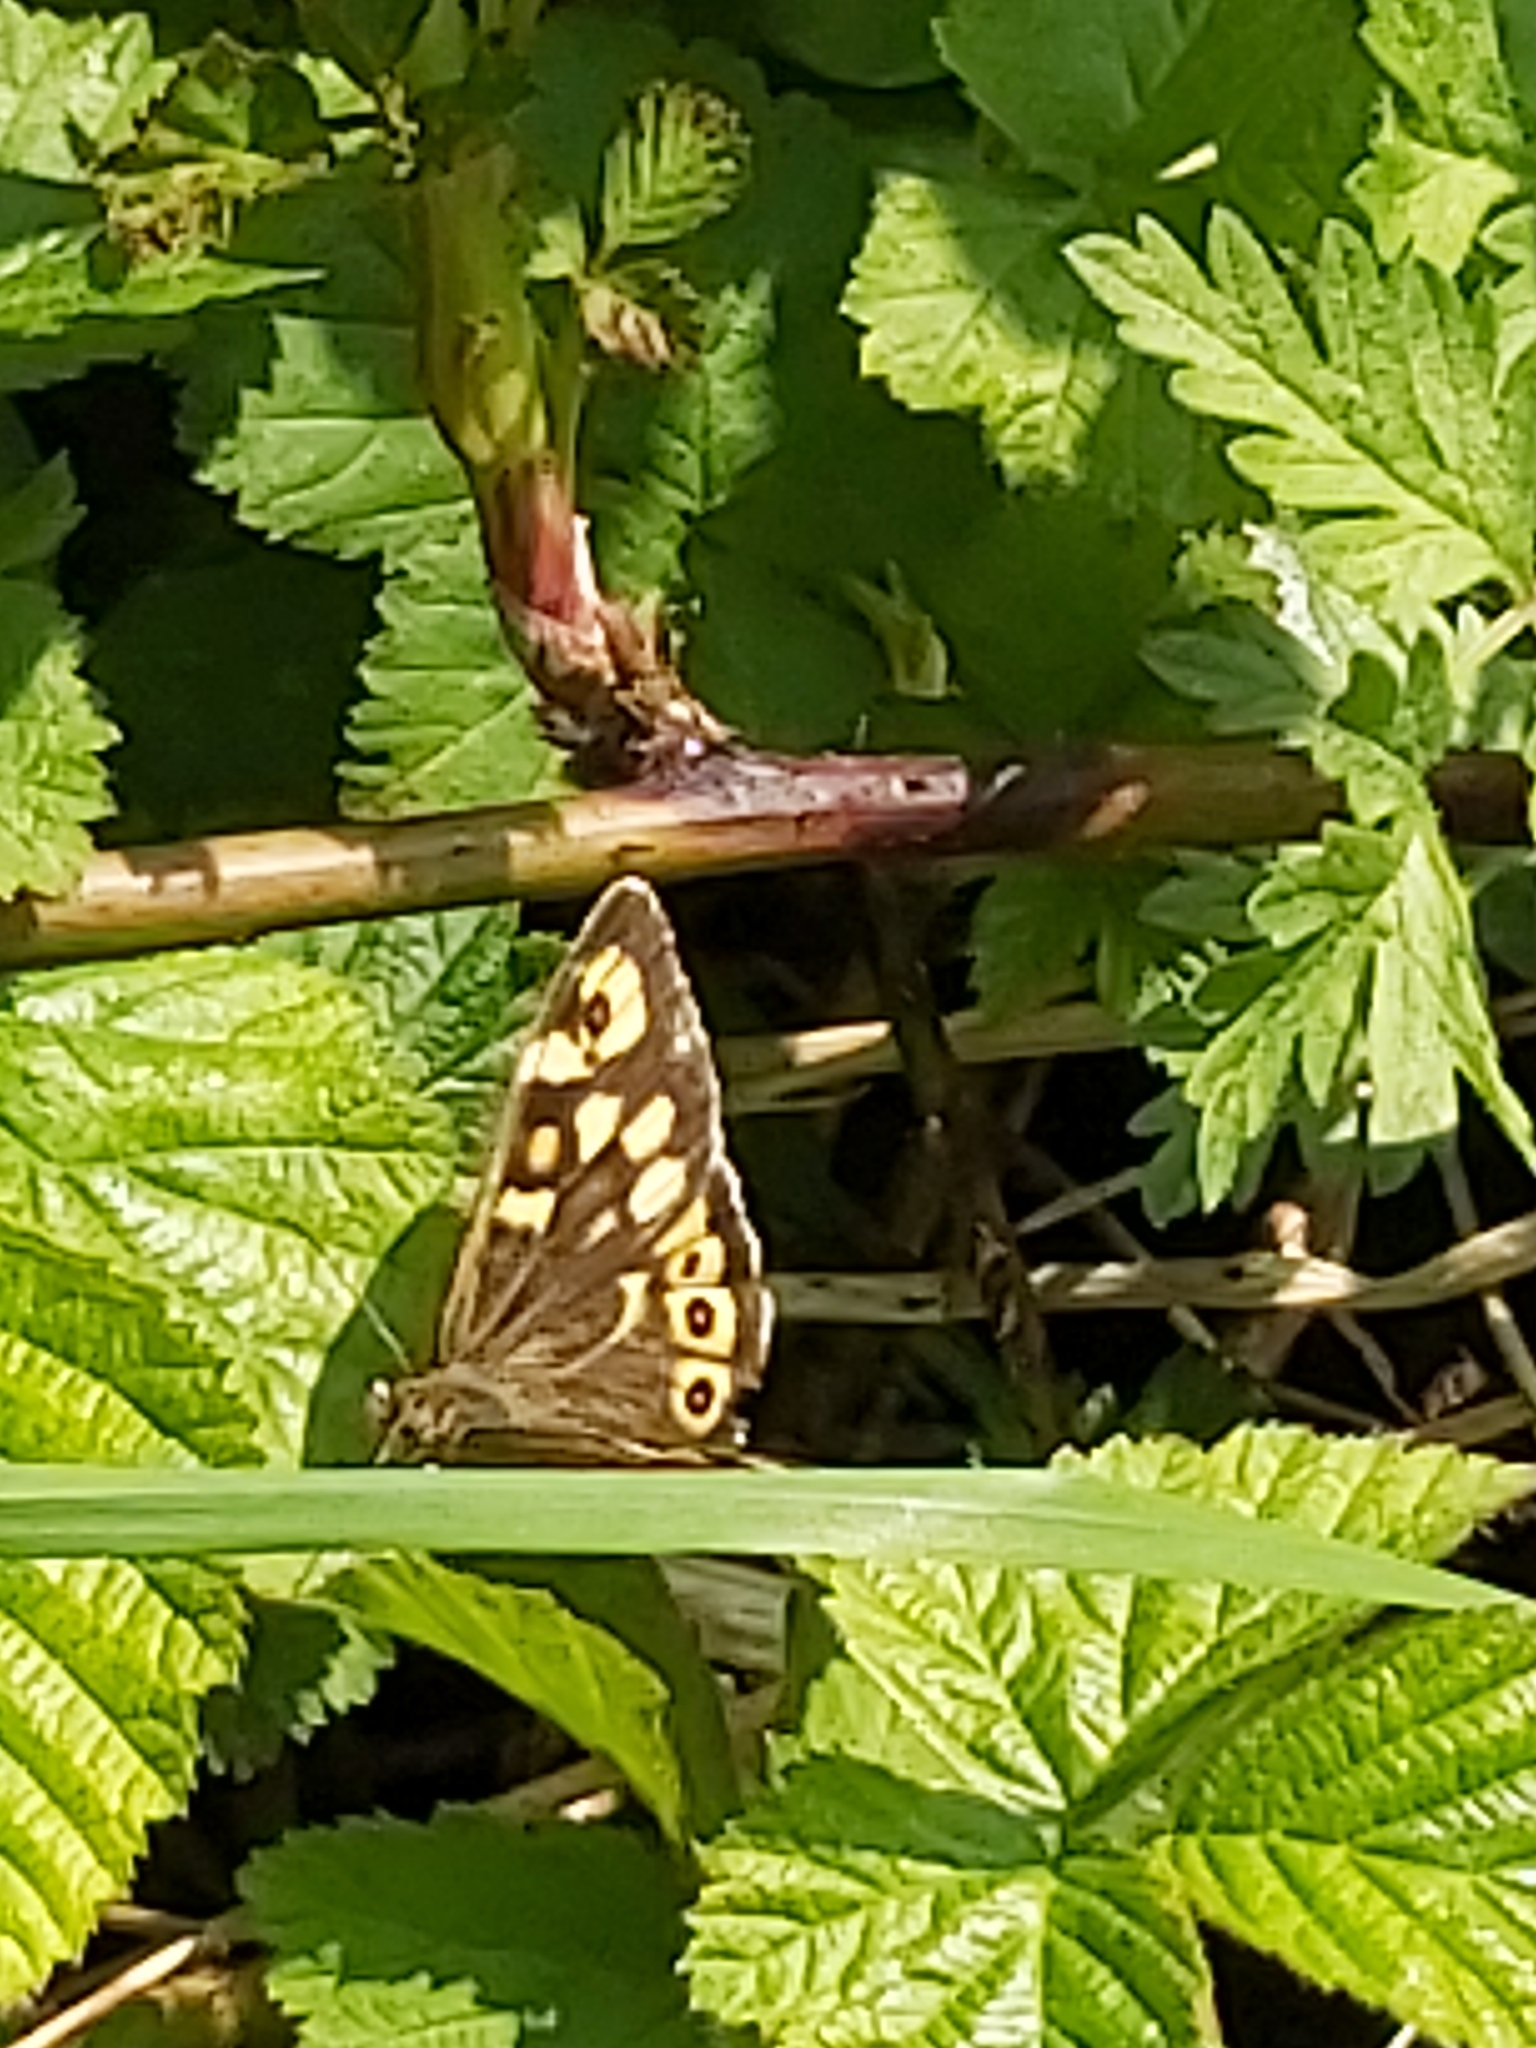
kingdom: Animalia
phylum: Arthropoda
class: Insecta
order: Lepidoptera
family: Nymphalidae
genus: Pararge
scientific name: Pararge aegeria
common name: Speckled wood
